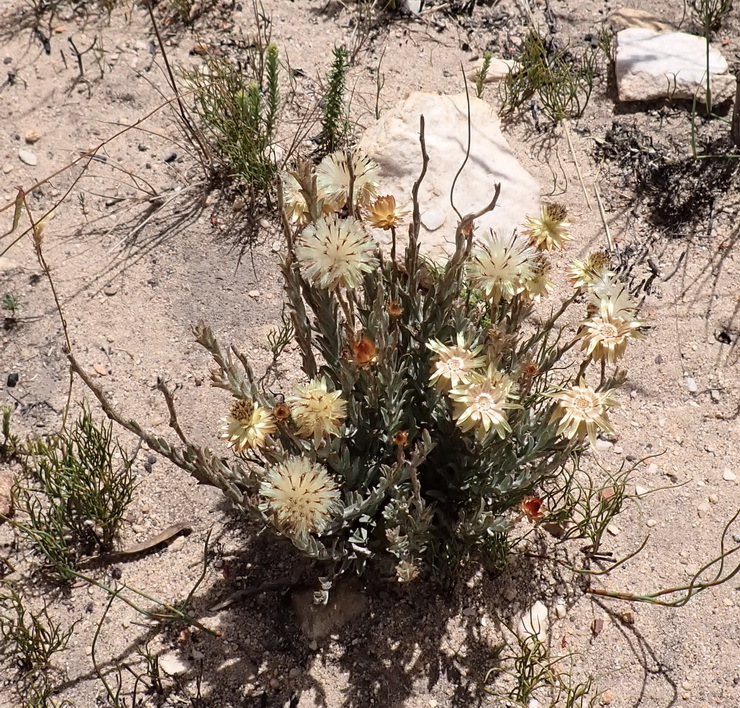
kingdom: Plantae
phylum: Tracheophyta
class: Magnoliopsida
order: Asterales
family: Asteraceae
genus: Syncarpha
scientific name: Syncarpha virgata
